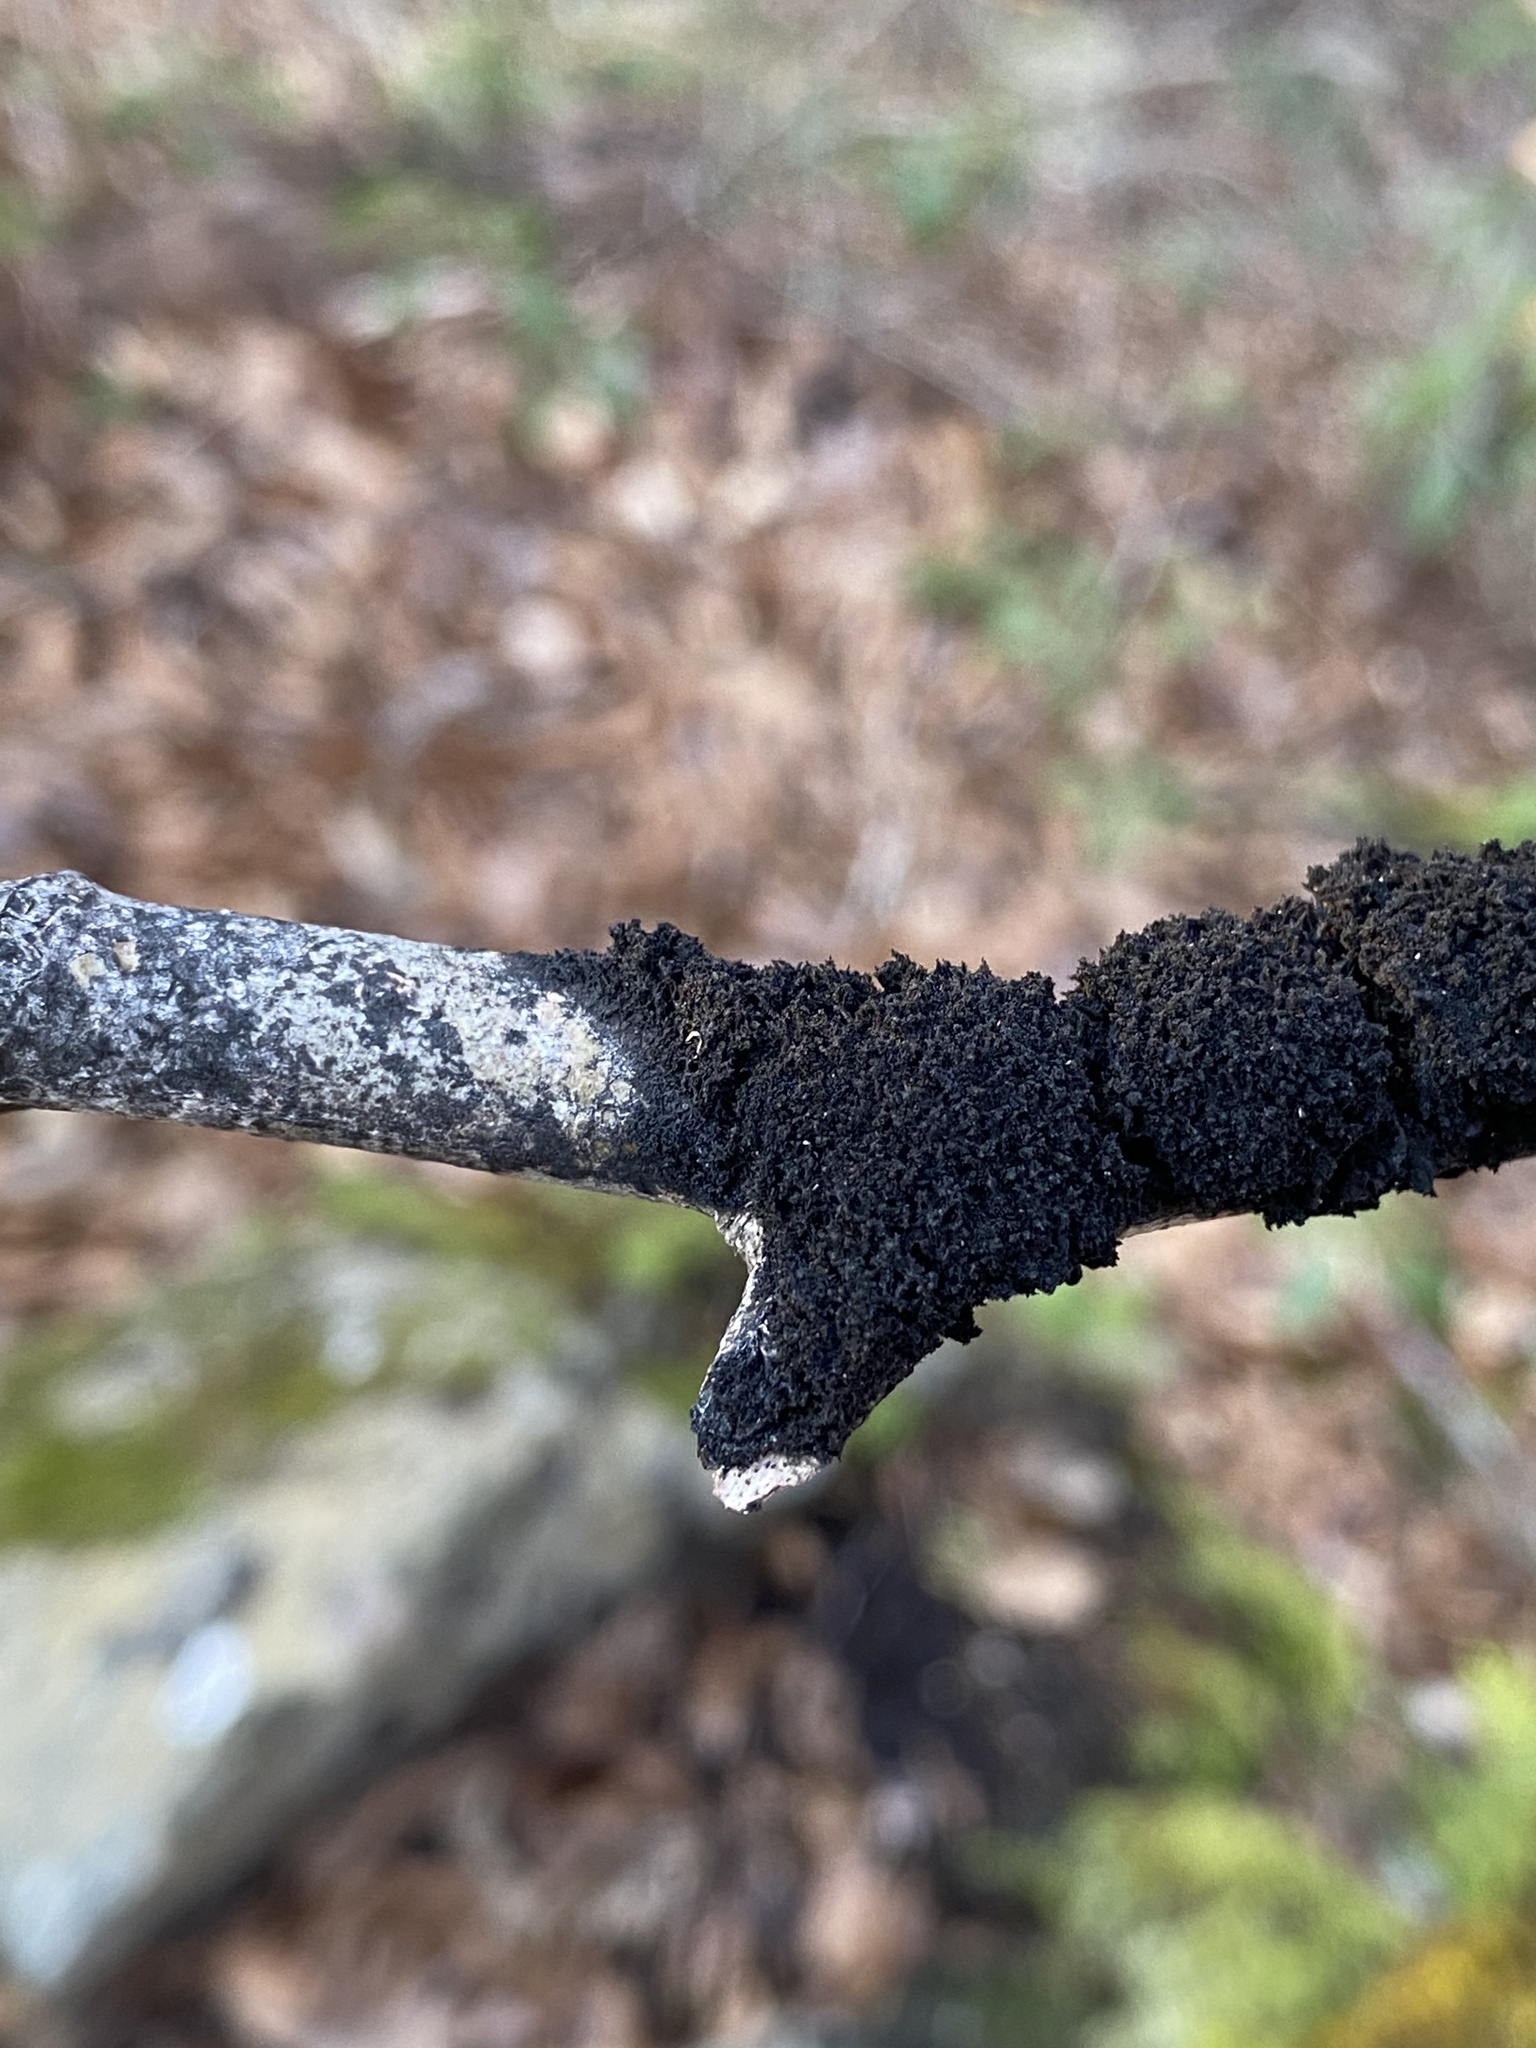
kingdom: Fungi
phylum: Ascomycota
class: Dothideomycetes
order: Capnodiales
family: Capnodiaceae
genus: Scorias
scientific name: Scorias spongiosa
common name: Black sooty mold
